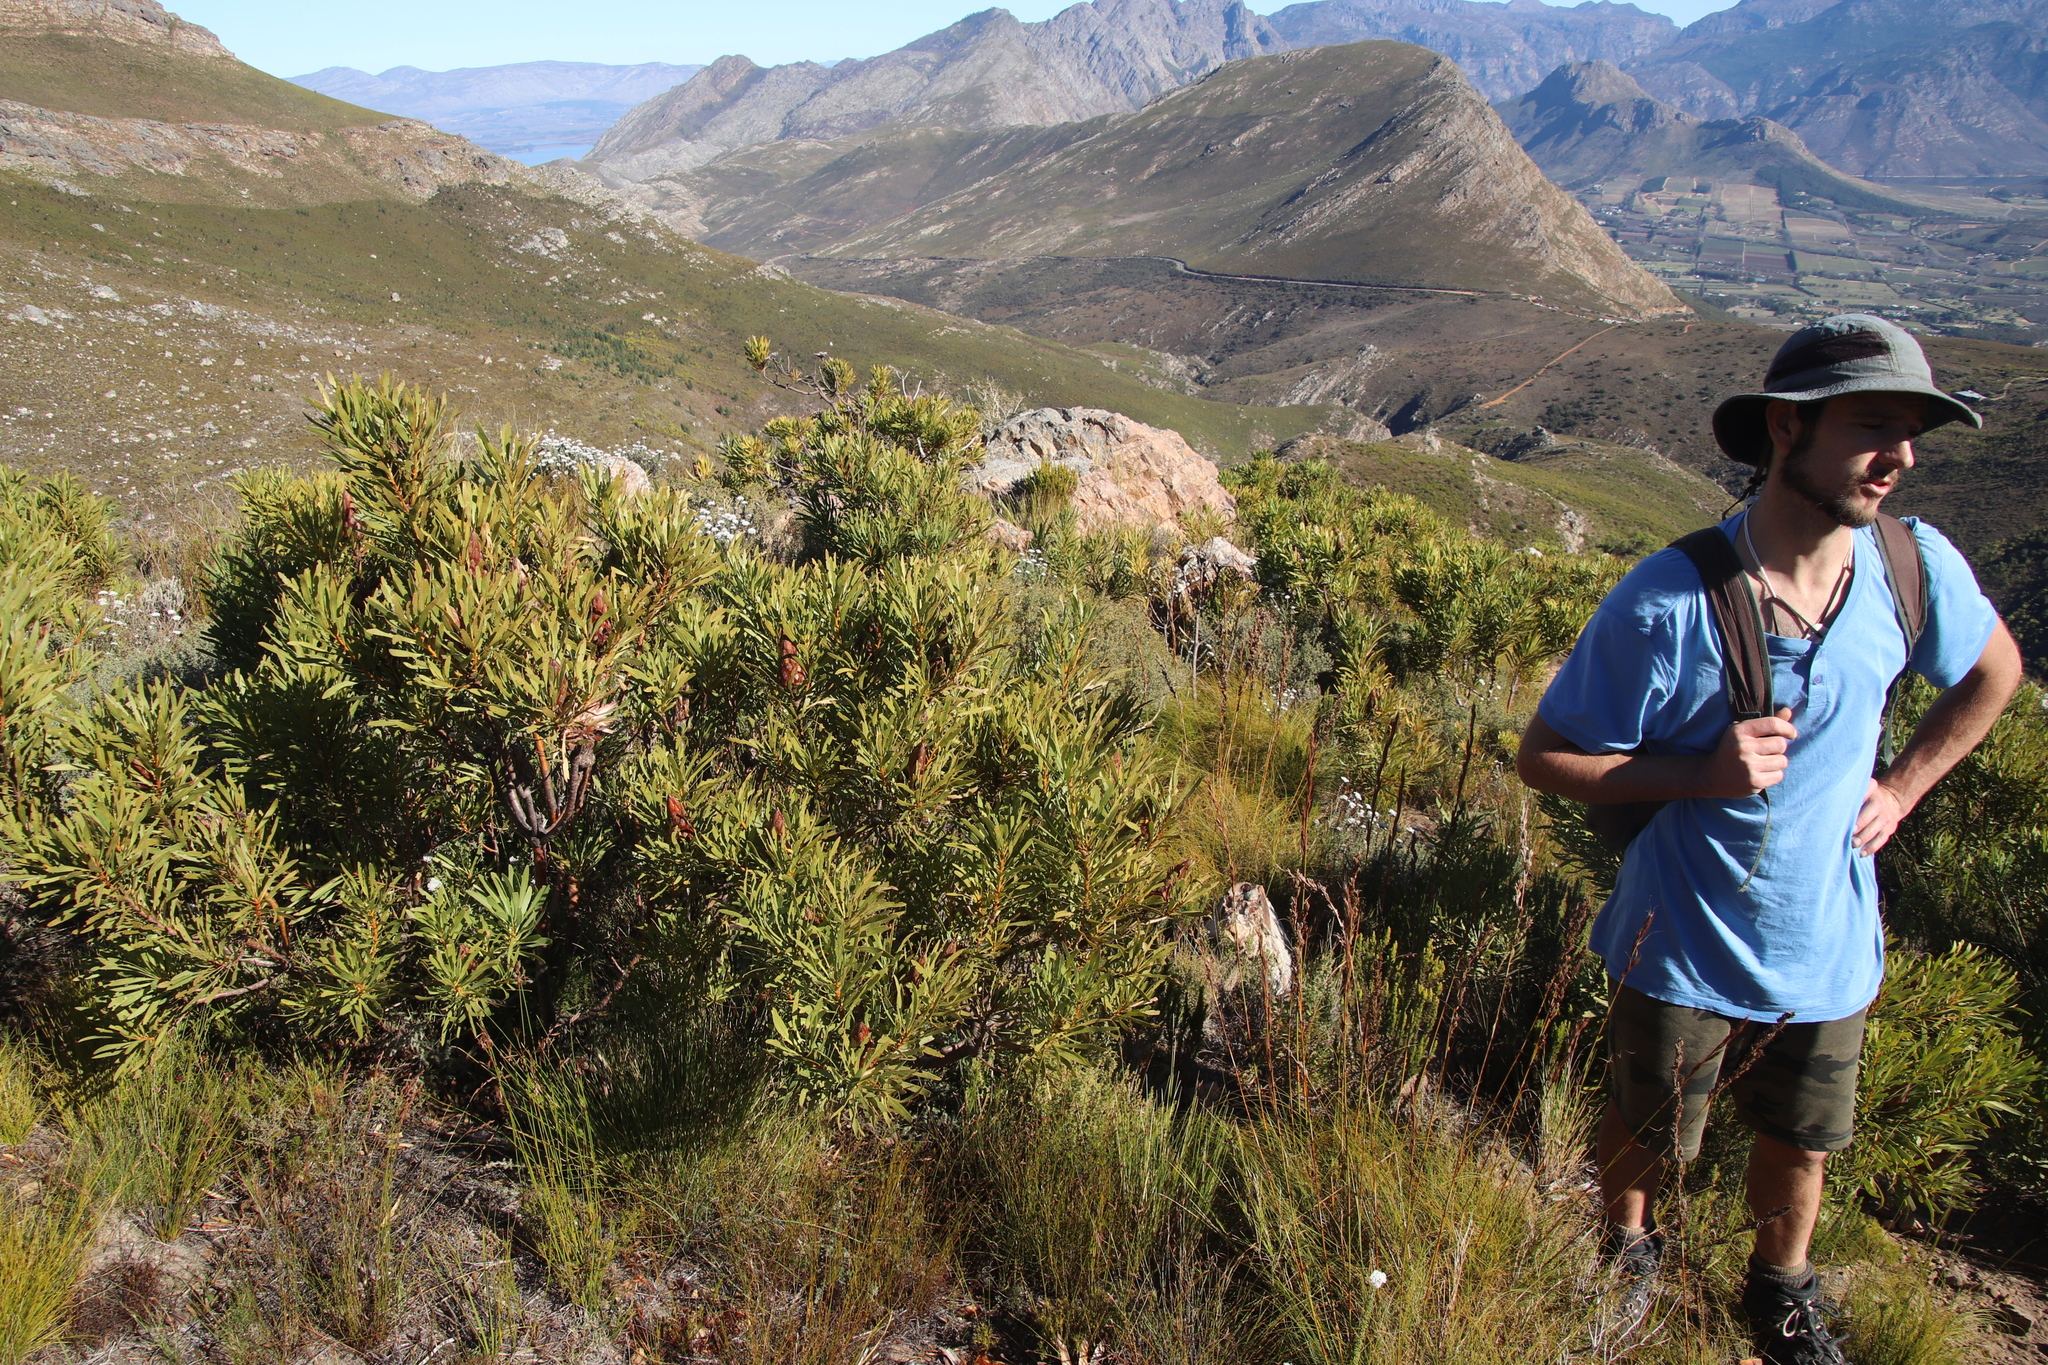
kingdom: Plantae
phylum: Tracheophyta
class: Magnoliopsida
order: Proteales
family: Proteaceae
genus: Protea
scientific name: Protea repens
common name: Sugarbush
